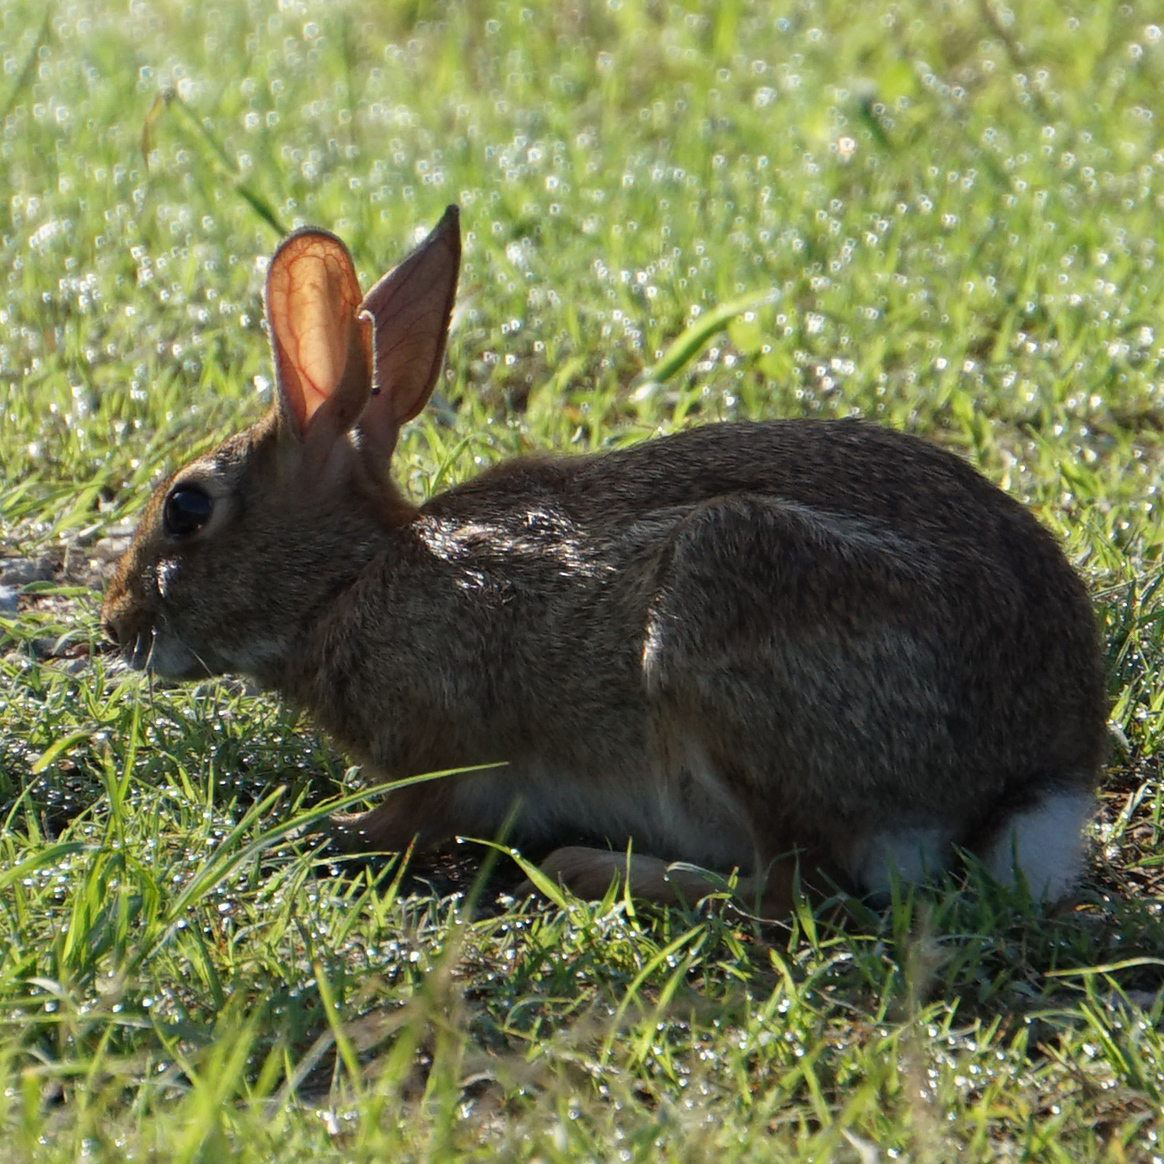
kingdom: Animalia
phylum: Chordata
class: Mammalia
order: Lagomorpha
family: Leporidae
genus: Sylvilagus
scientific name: Sylvilagus floridanus
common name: Eastern cottontail
